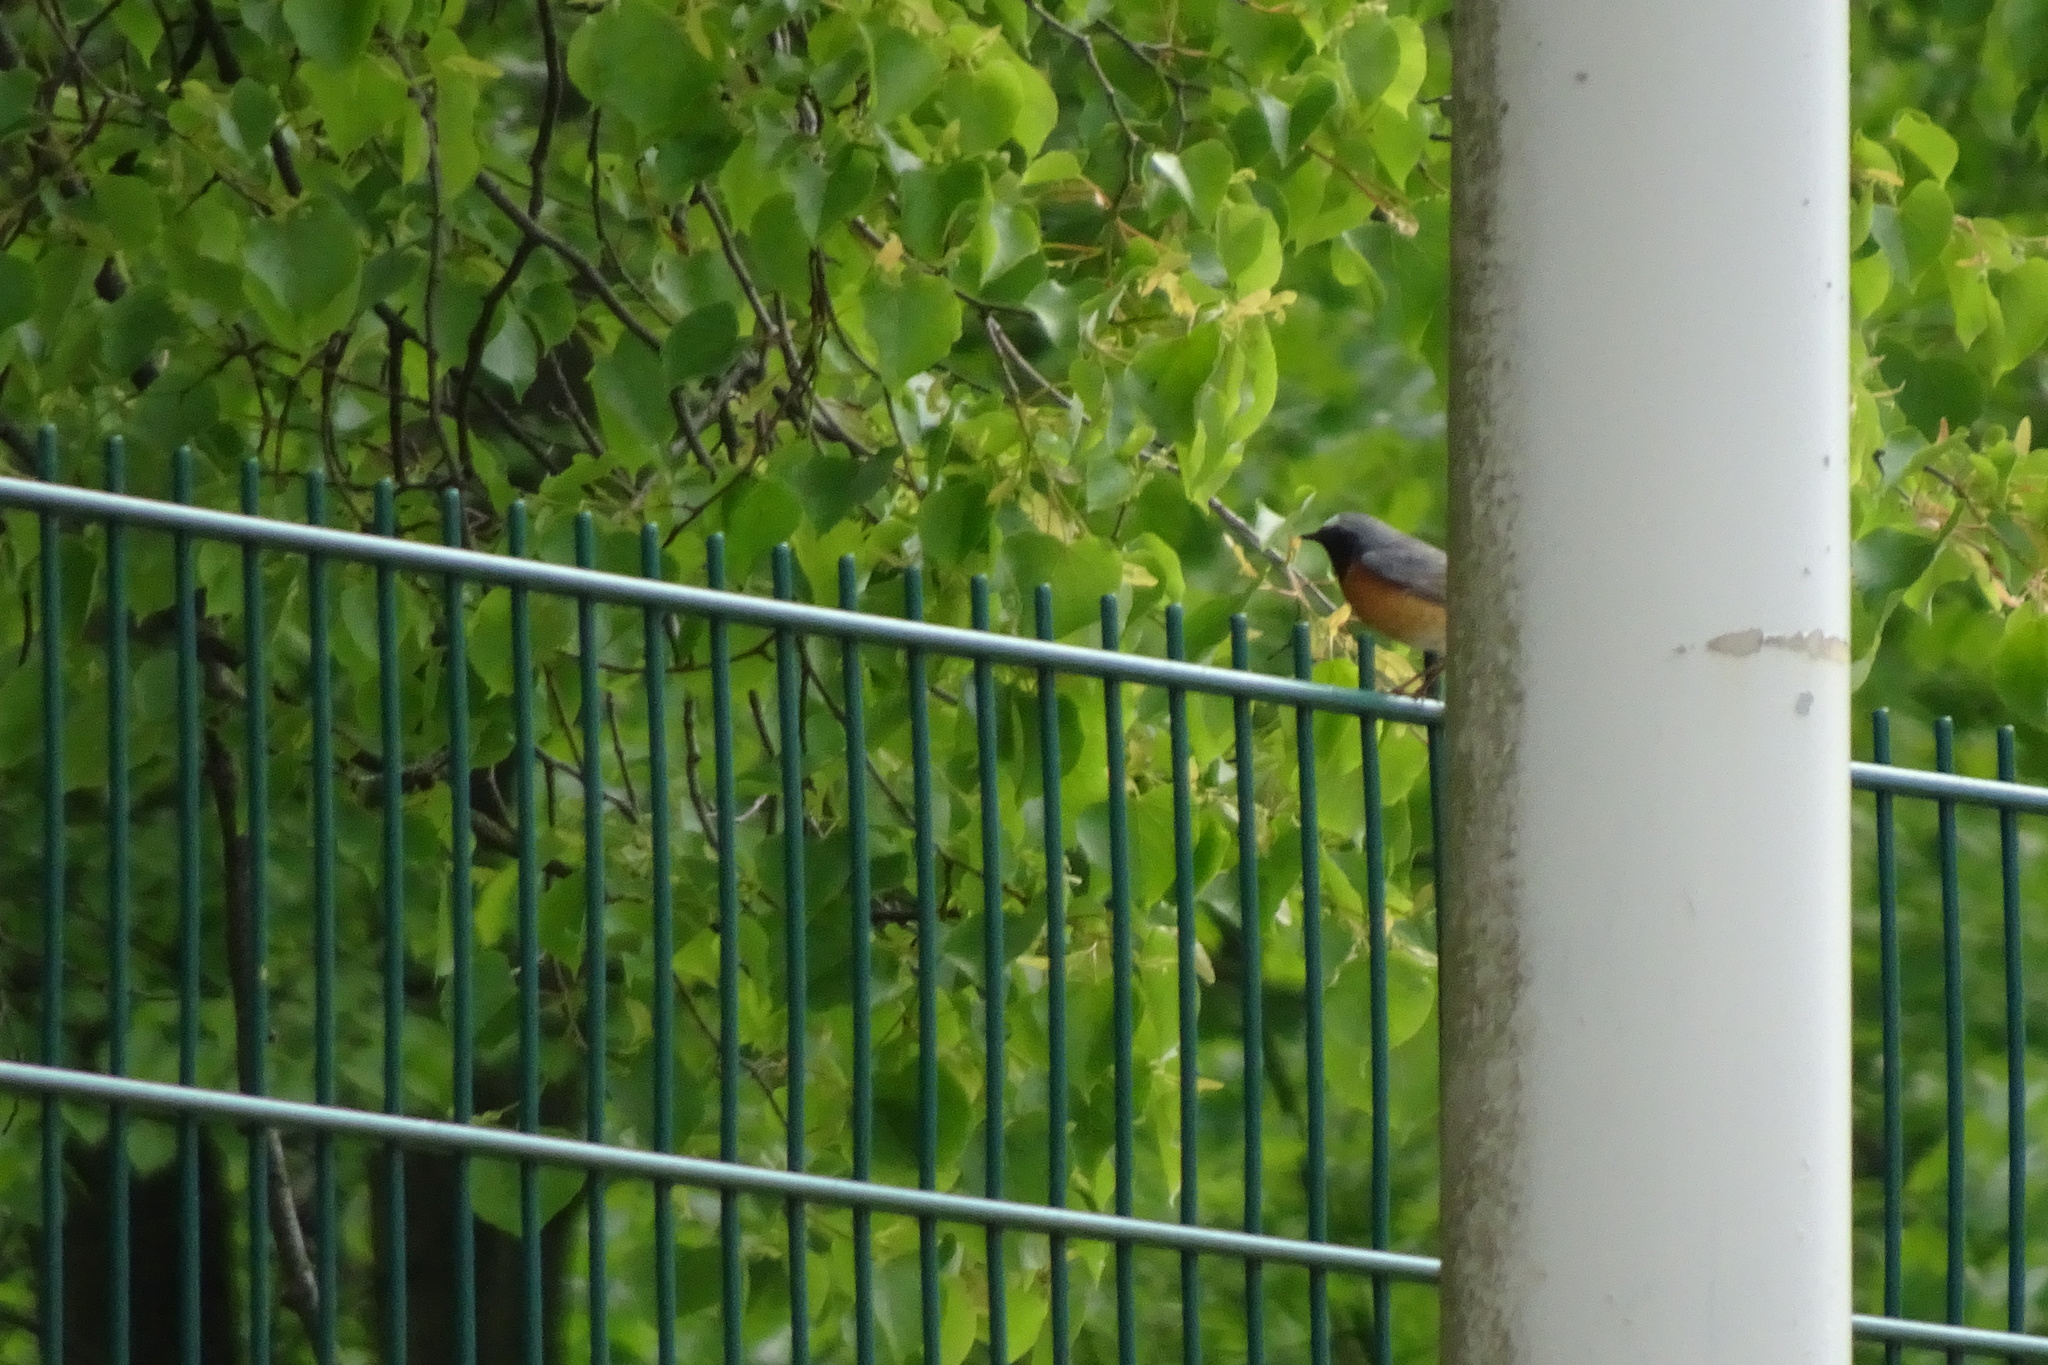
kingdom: Animalia
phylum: Chordata
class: Aves
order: Passeriformes
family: Muscicapidae
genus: Phoenicurus
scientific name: Phoenicurus phoenicurus
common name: Common redstart
